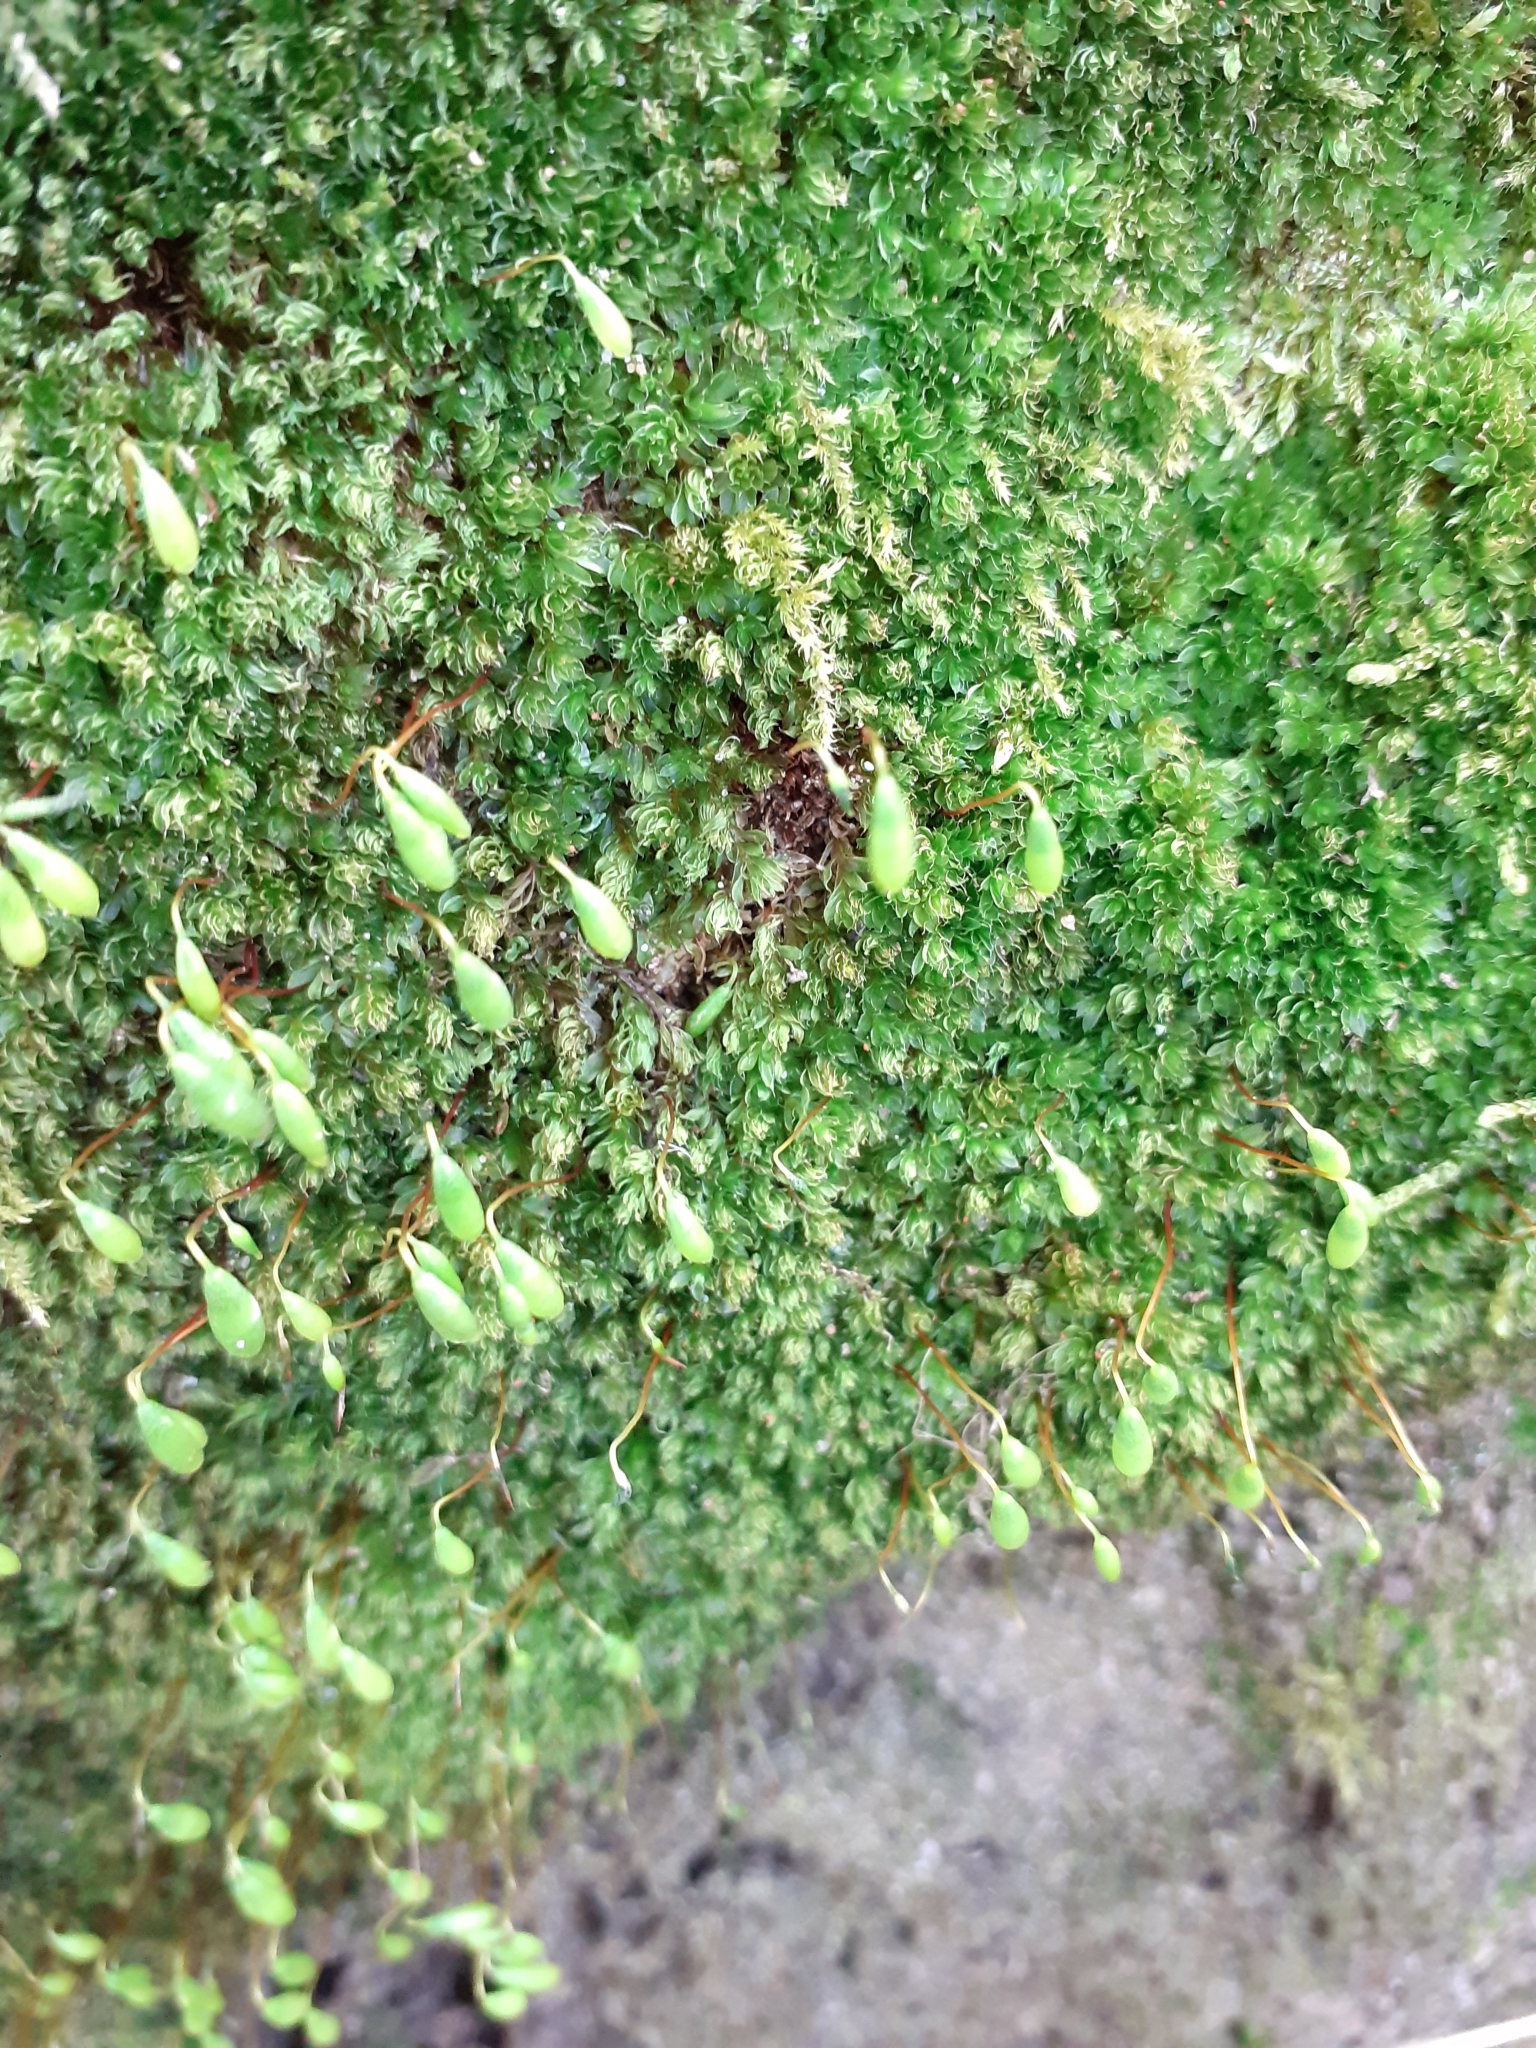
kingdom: Plantae
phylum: Bryophyta
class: Bryopsida
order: Bryales
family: Bryaceae
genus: Rosulabryum
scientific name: Rosulabryum capillare
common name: Capillary thread-moss
